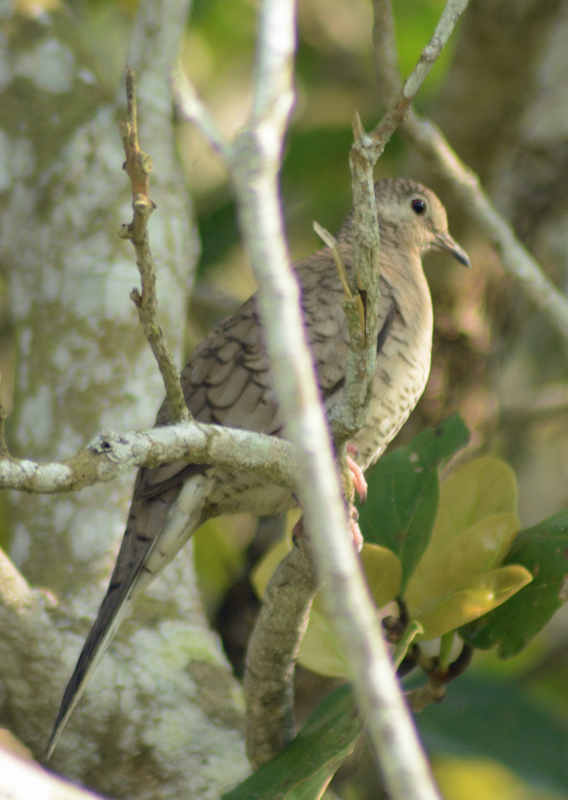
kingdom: Animalia
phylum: Chordata
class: Aves
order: Columbiformes
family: Columbidae
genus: Columbina
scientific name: Columbina inca
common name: Inca dove
